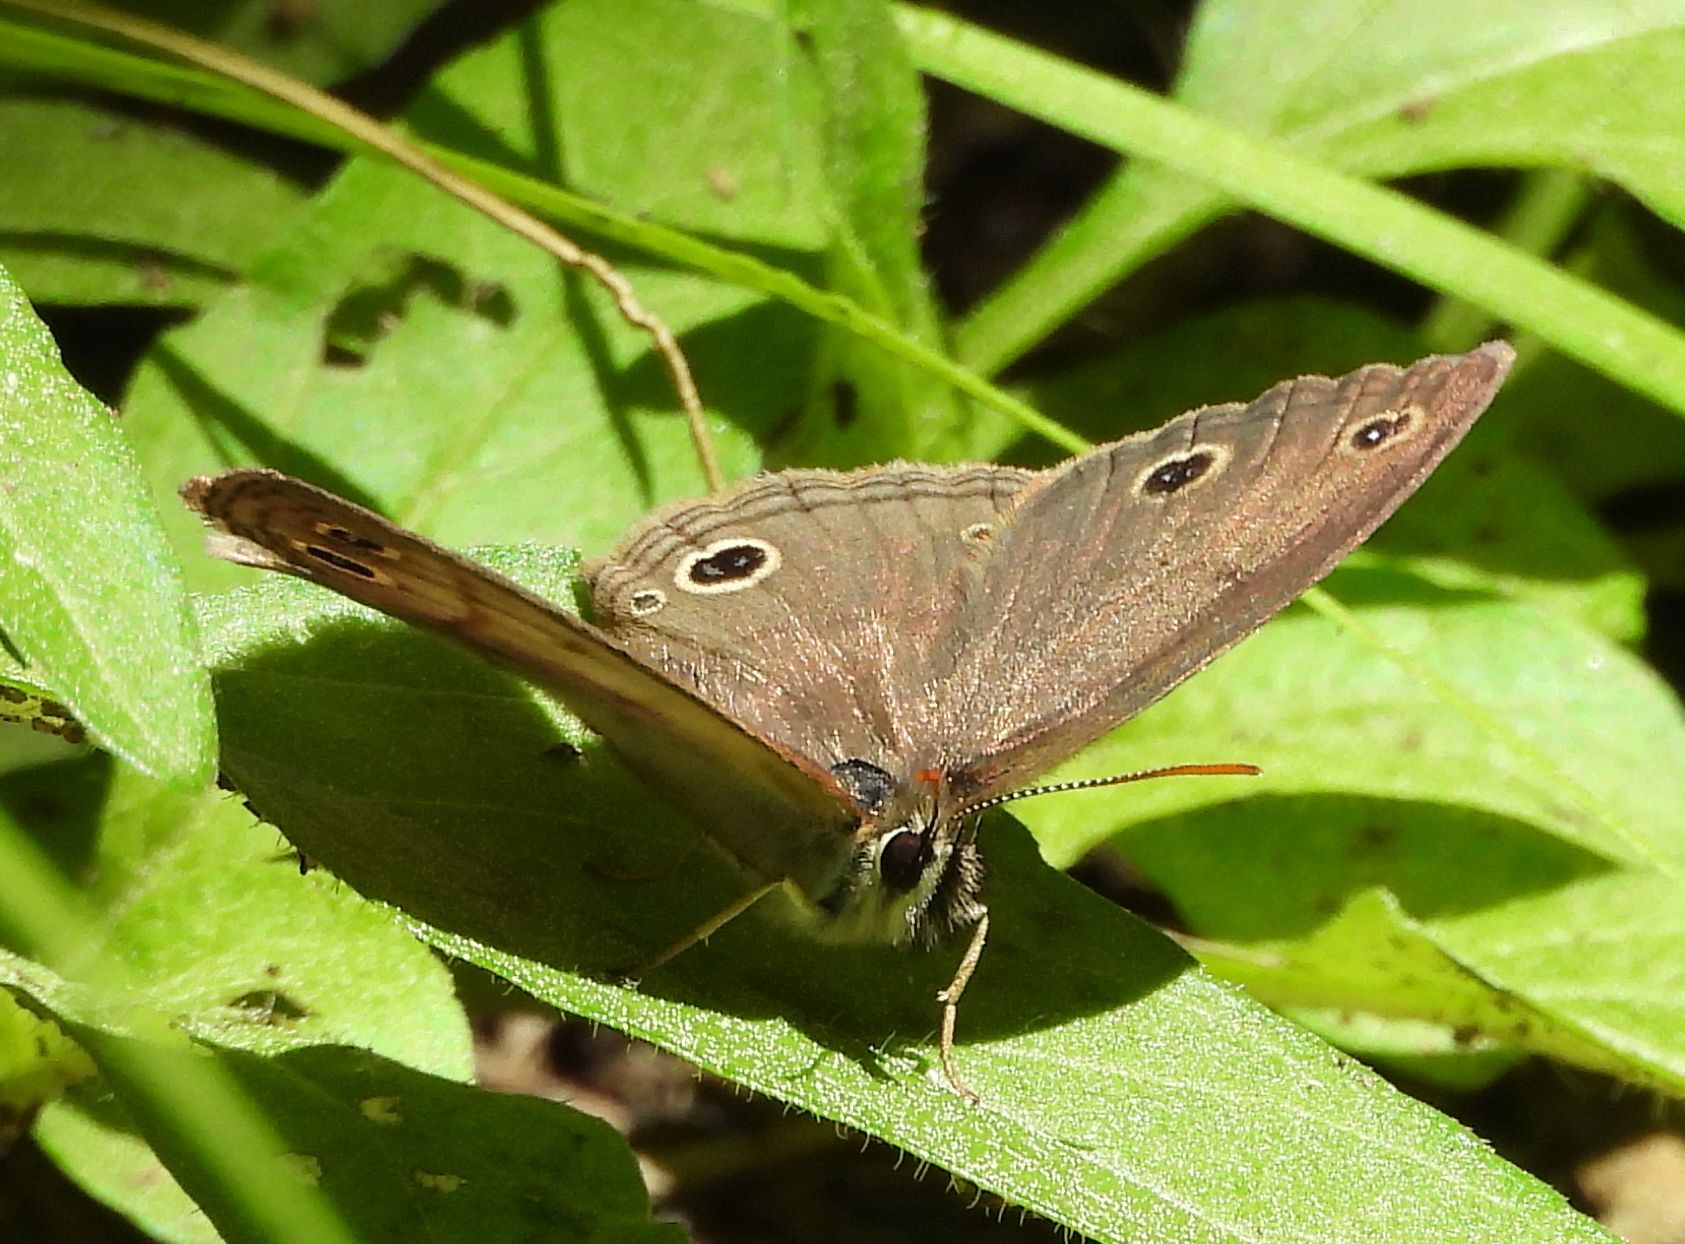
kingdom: Animalia
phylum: Arthropoda
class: Insecta
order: Lepidoptera
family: Nymphalidae
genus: Euptychia
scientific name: Euptychia cymela
